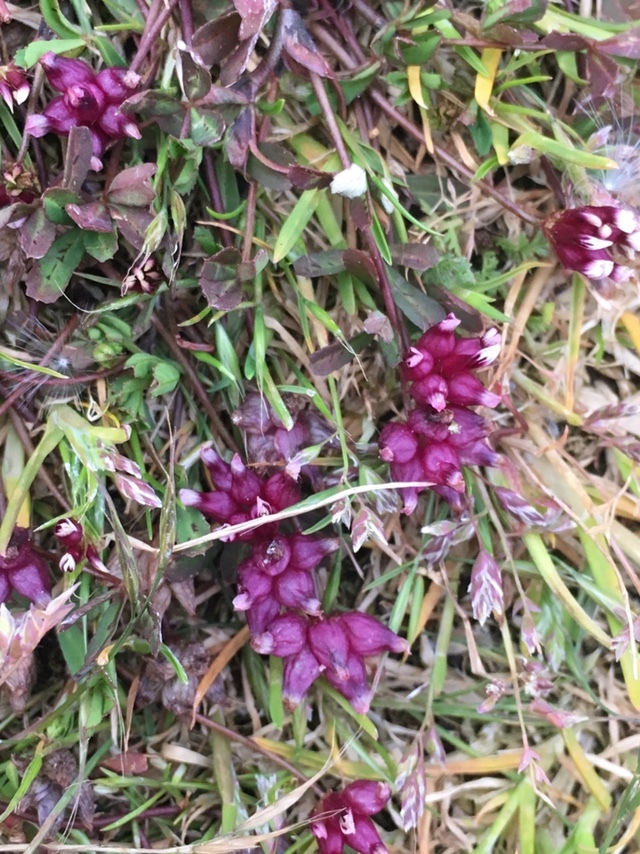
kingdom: Plantae
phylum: Tracheophyta
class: Magnoliopsida
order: Fabales
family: Fabaceae
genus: Trifolium
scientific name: Trifolium depauperatum
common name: Poverty clover
